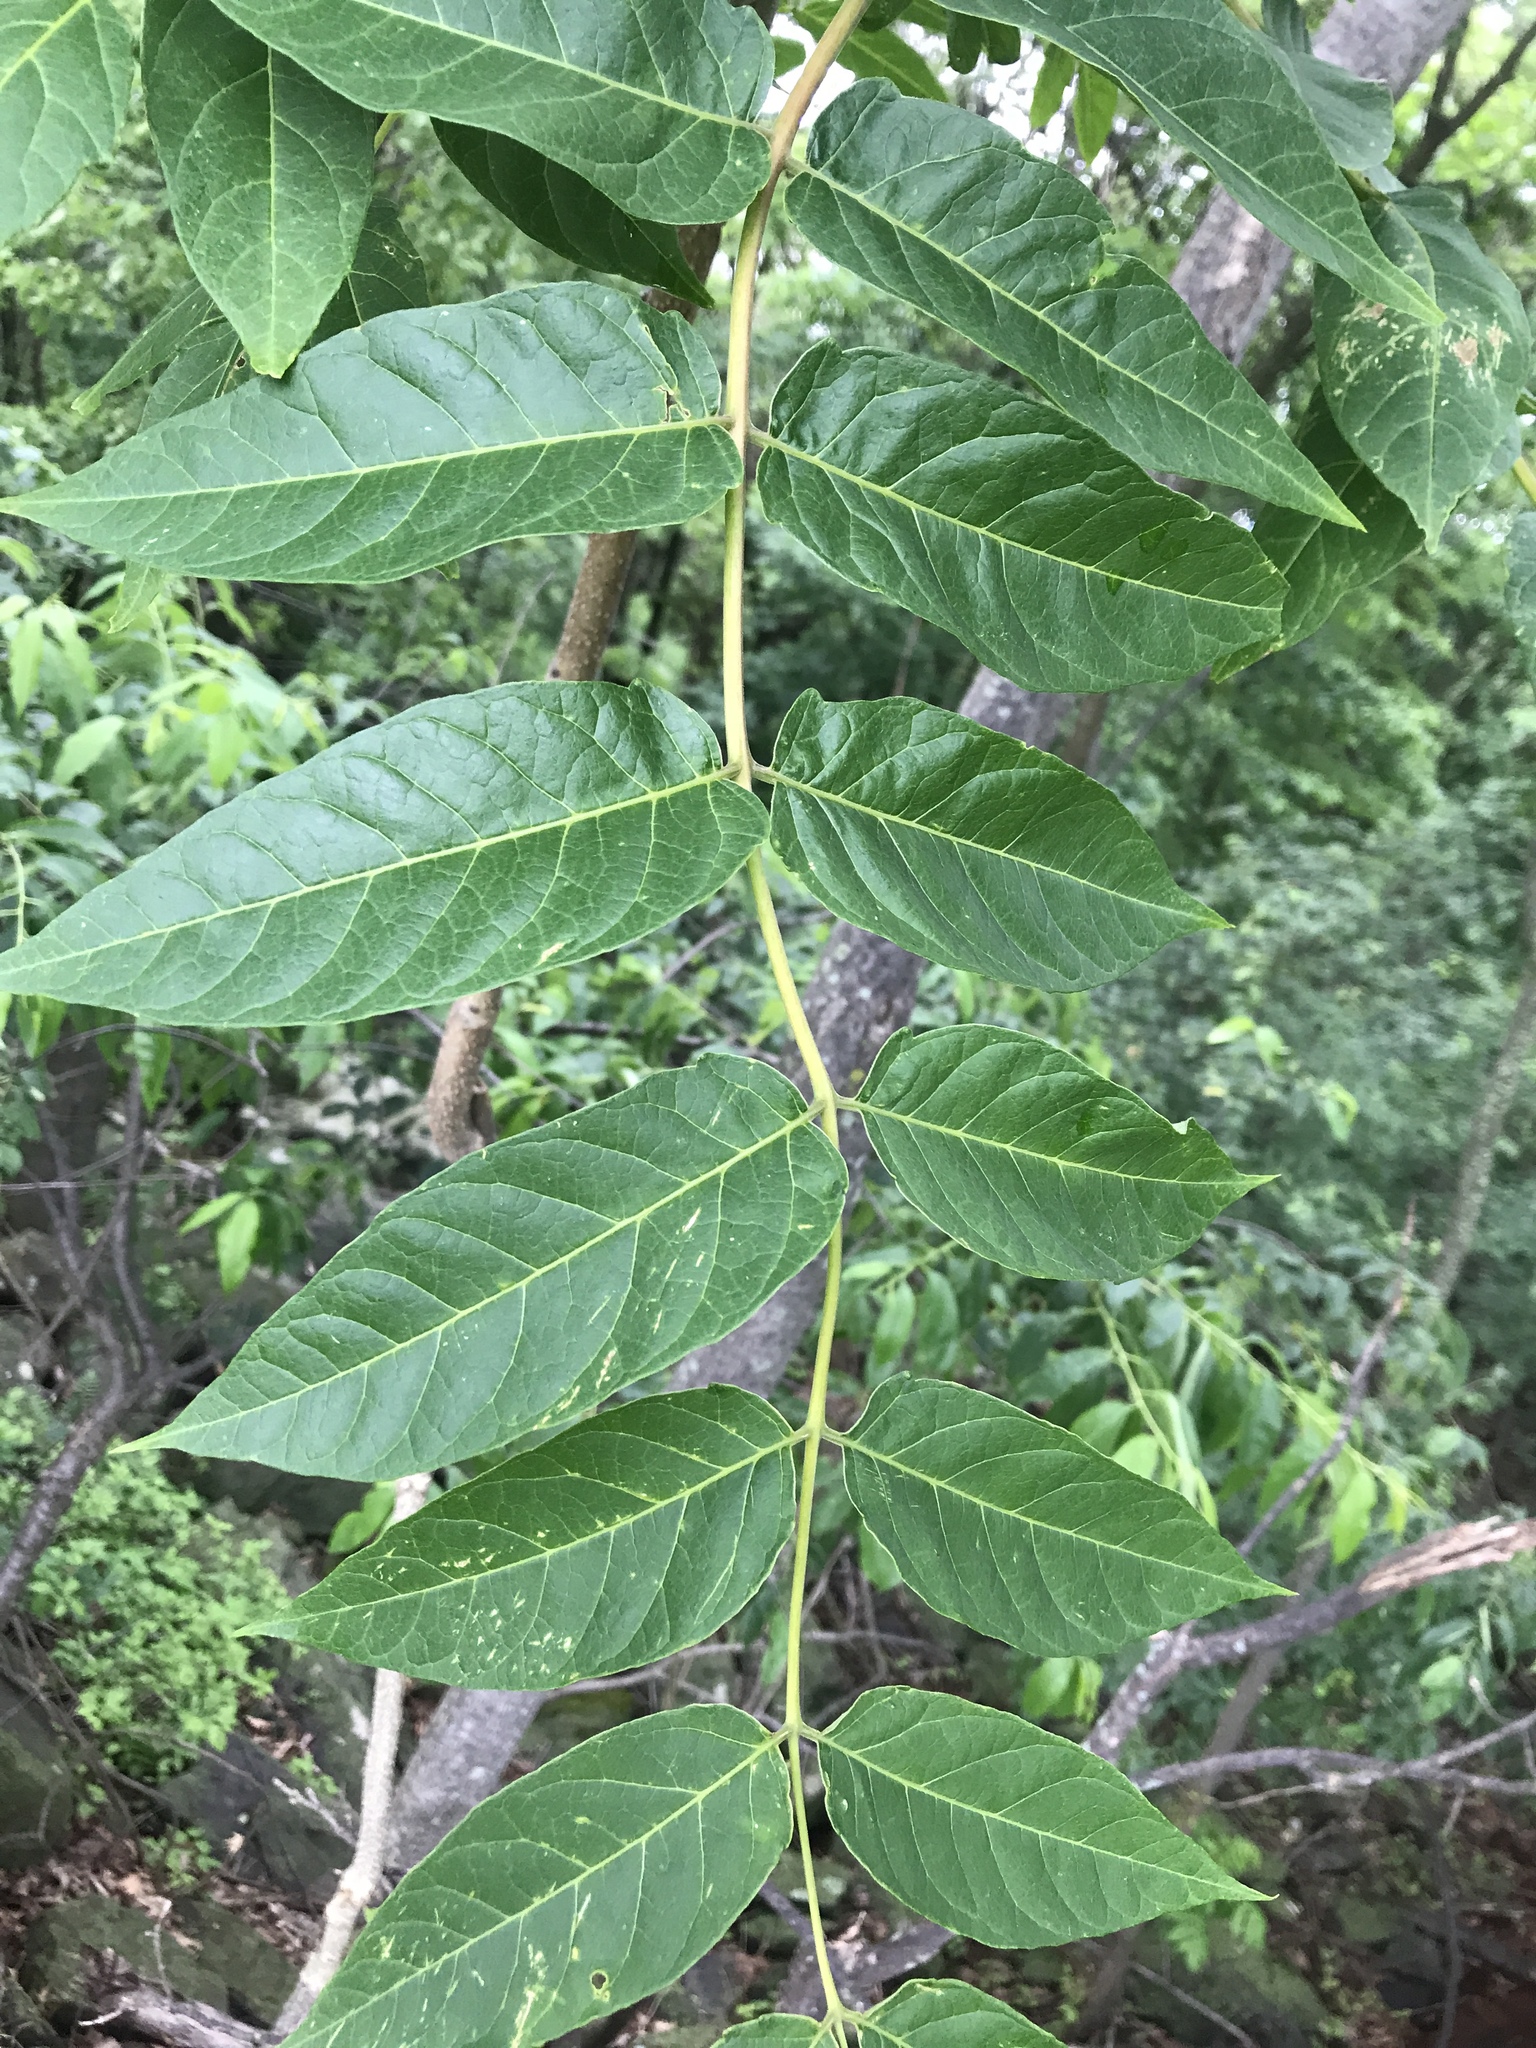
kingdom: Plantae
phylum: Tracheophyta
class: Magnoliopsida
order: Sapindales
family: Simaroubaceae
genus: Ailanthus
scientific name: Ailanthus altissima
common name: Tree-of-heaven
